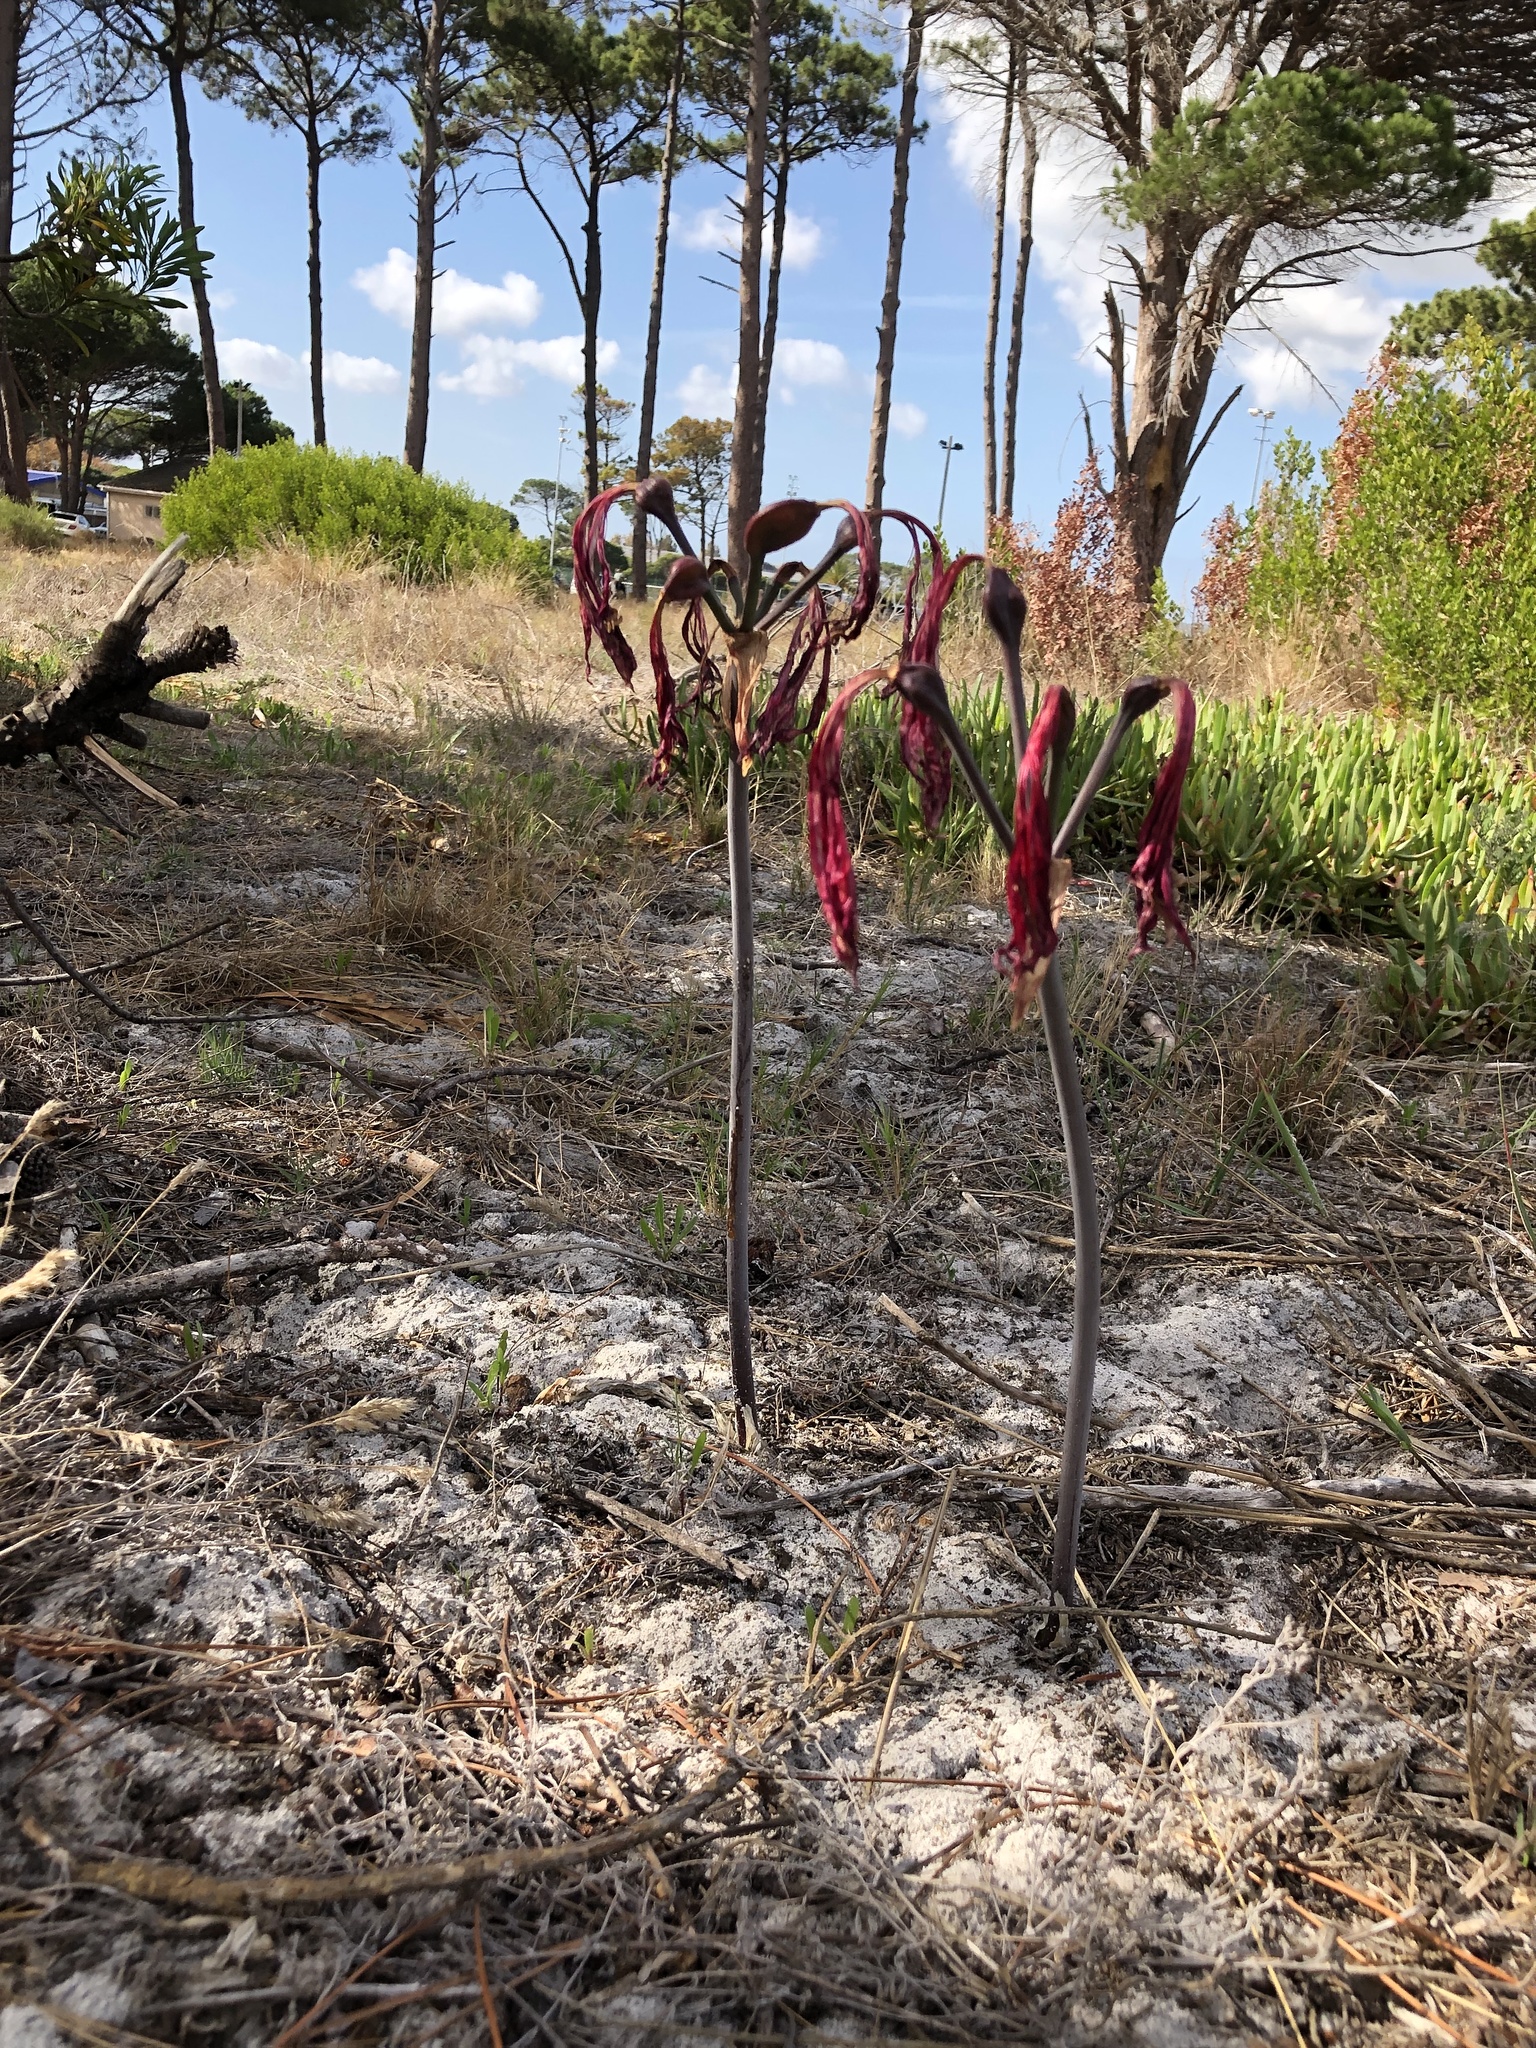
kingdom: Plantae
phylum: Tracheophyta
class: Liliopsida
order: Asparagales
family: Amaryllidaceae
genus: Amaryllis
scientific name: Amaryllis belladonna
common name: Jersey lily
